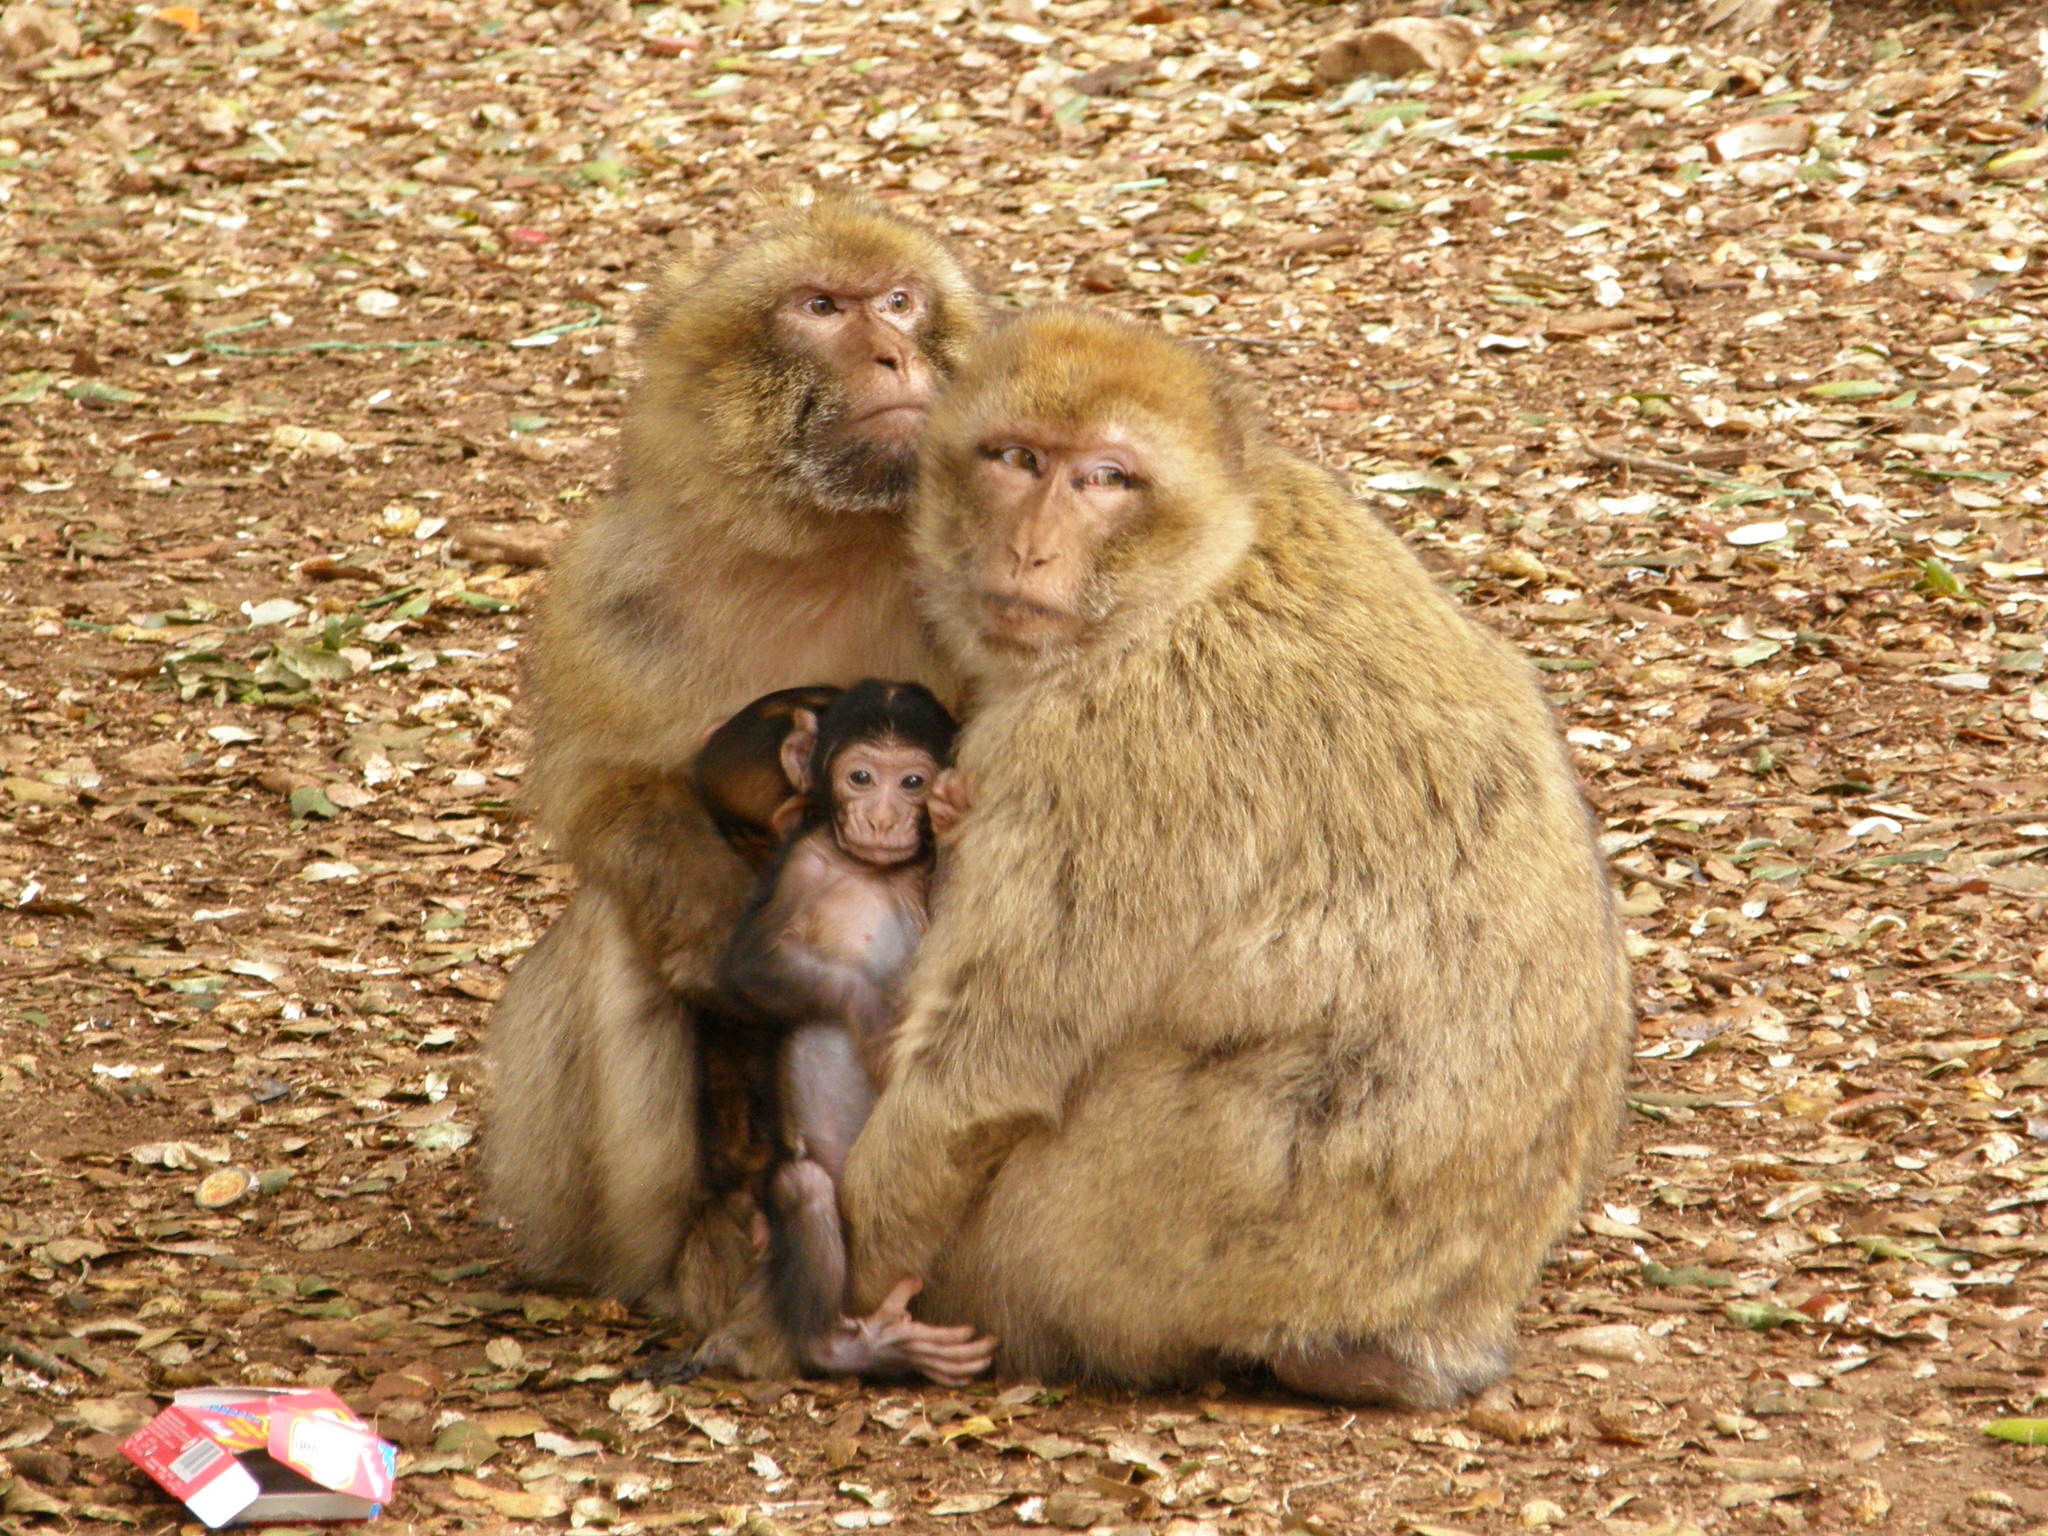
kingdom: Animalia
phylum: Chordata
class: Mammalia
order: Primates
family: Cercopithecidae
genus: Macaca
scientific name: Macaca sylvanus
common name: Barbary macaque
